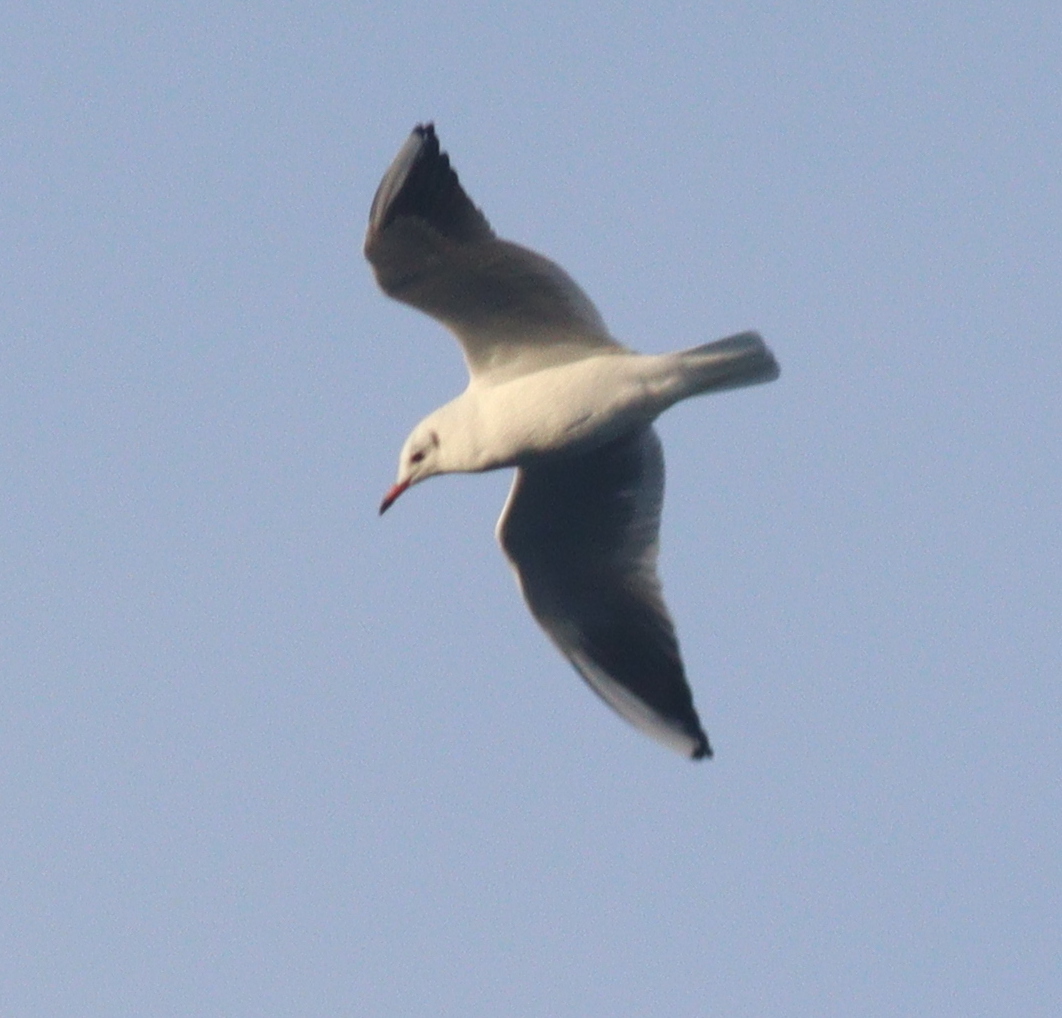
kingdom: Animalia
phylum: Chordata
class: Aves
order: Charadriiformes
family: Laridae
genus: Chroicocephalus
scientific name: Chroicocephalus ridibundus
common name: Black-headed gull
